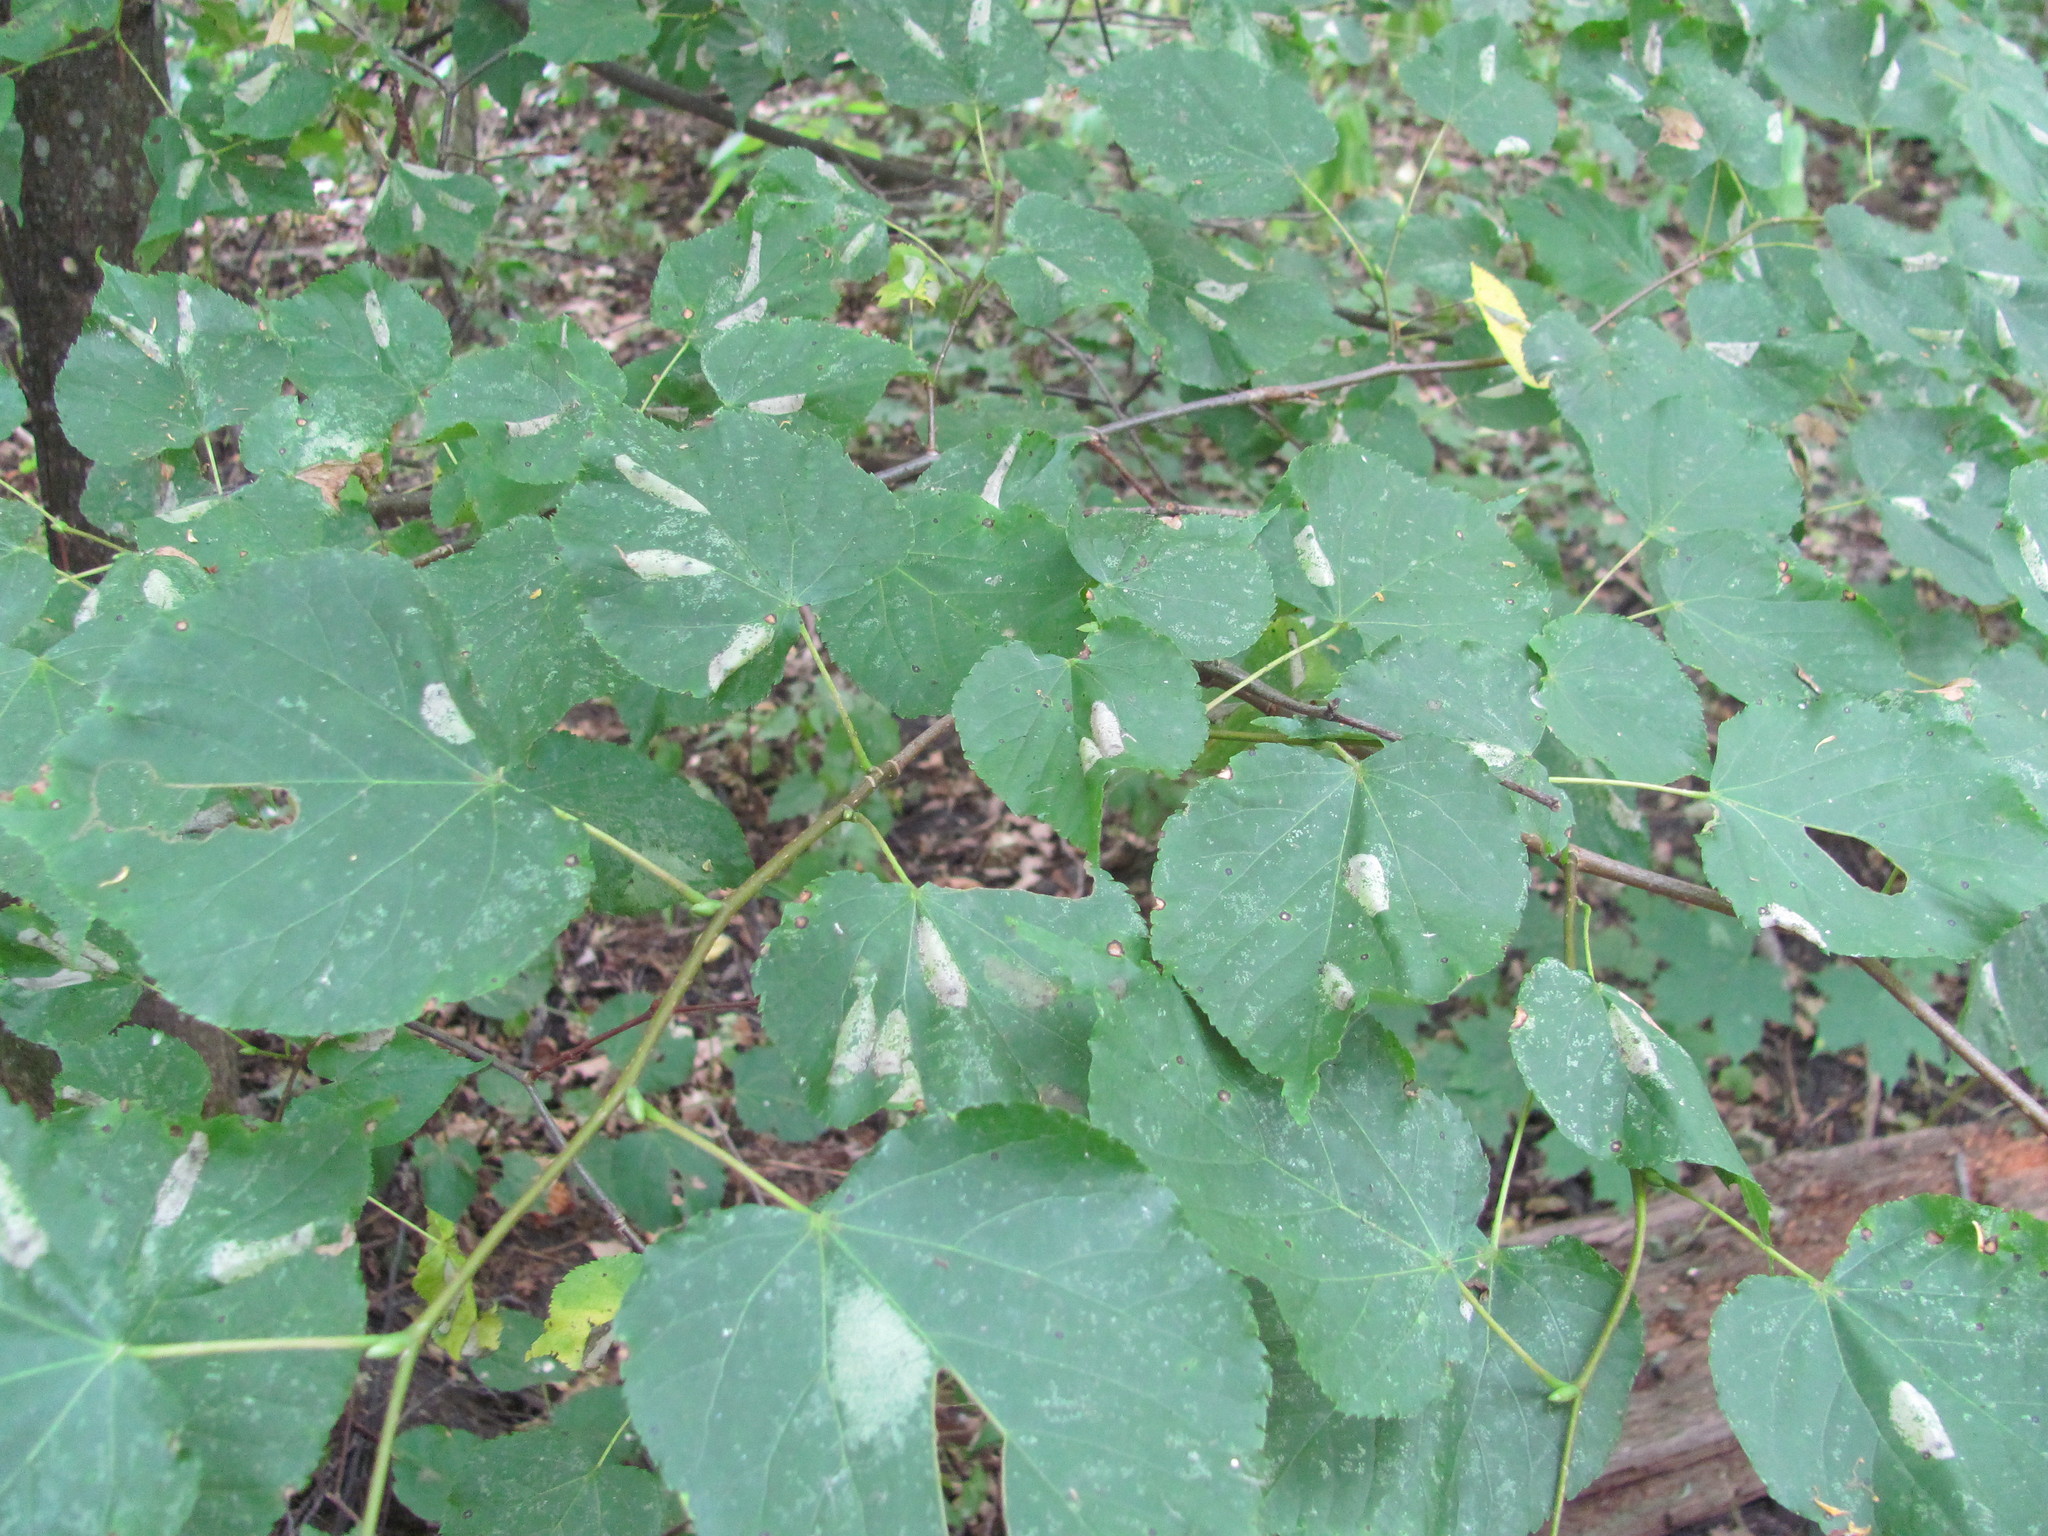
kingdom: Plantae
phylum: Tracheophyta
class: Magnoliopsida
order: Malvales
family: Malvaceae
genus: Tilia
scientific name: Tilia cordata
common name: Small-leaved lime
